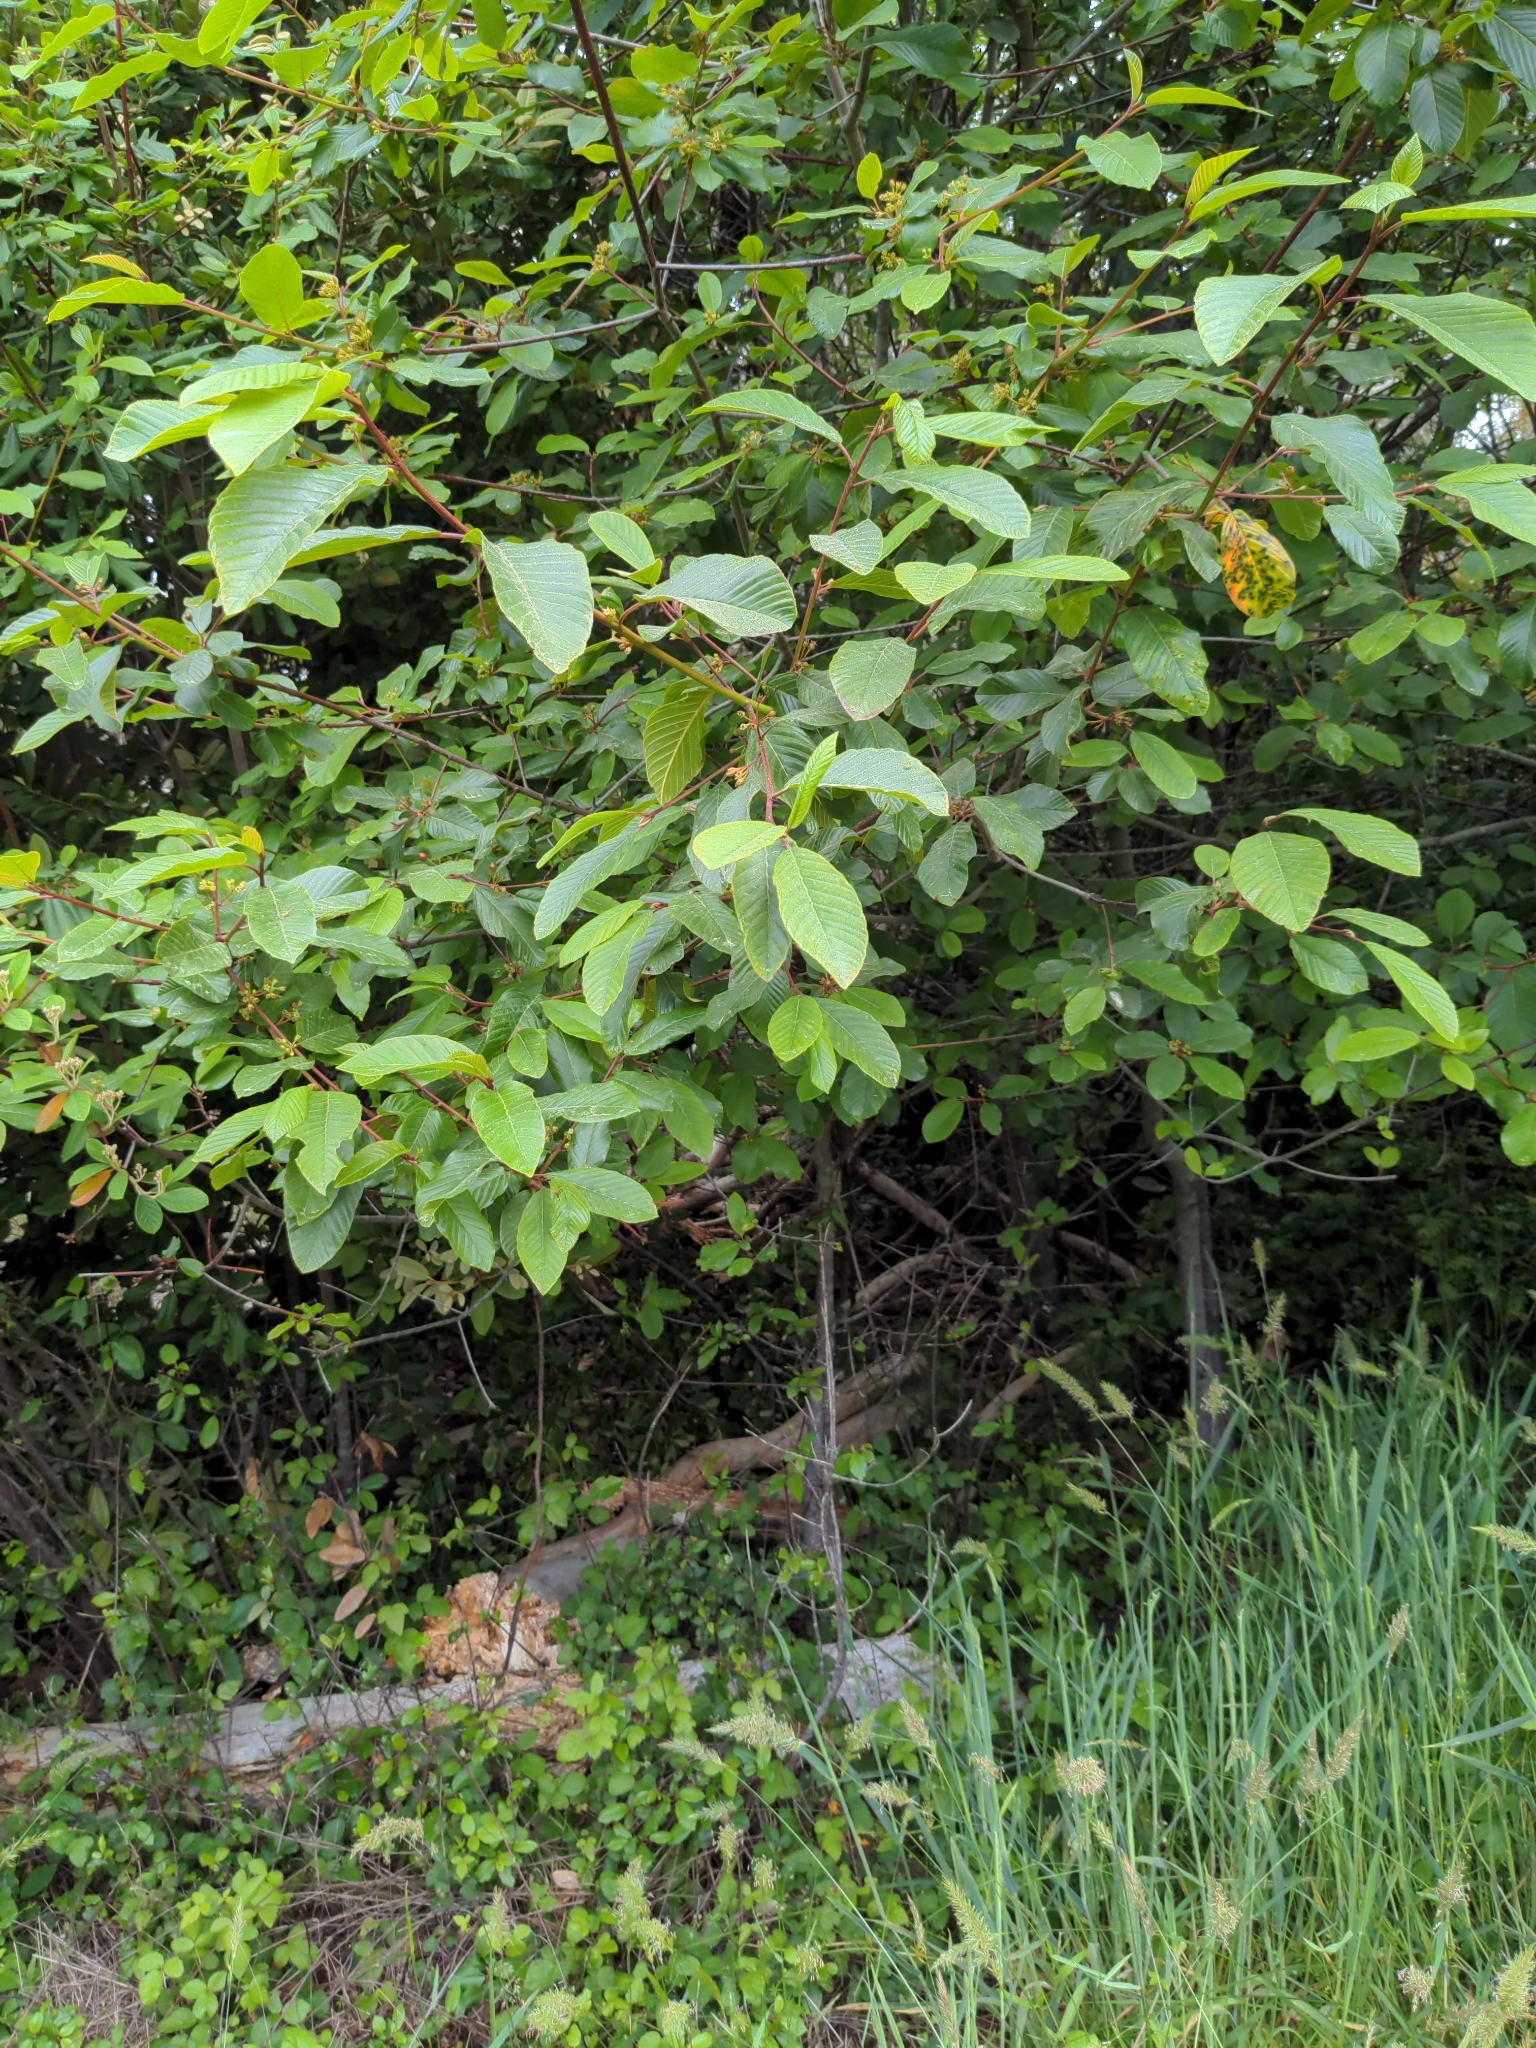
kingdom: Plantae
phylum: Tracheophyta
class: Magnoliopsida
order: Rosales
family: Rhamnaceae
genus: Frangula
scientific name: Frangula purshiana
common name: Cascara buckthorn
